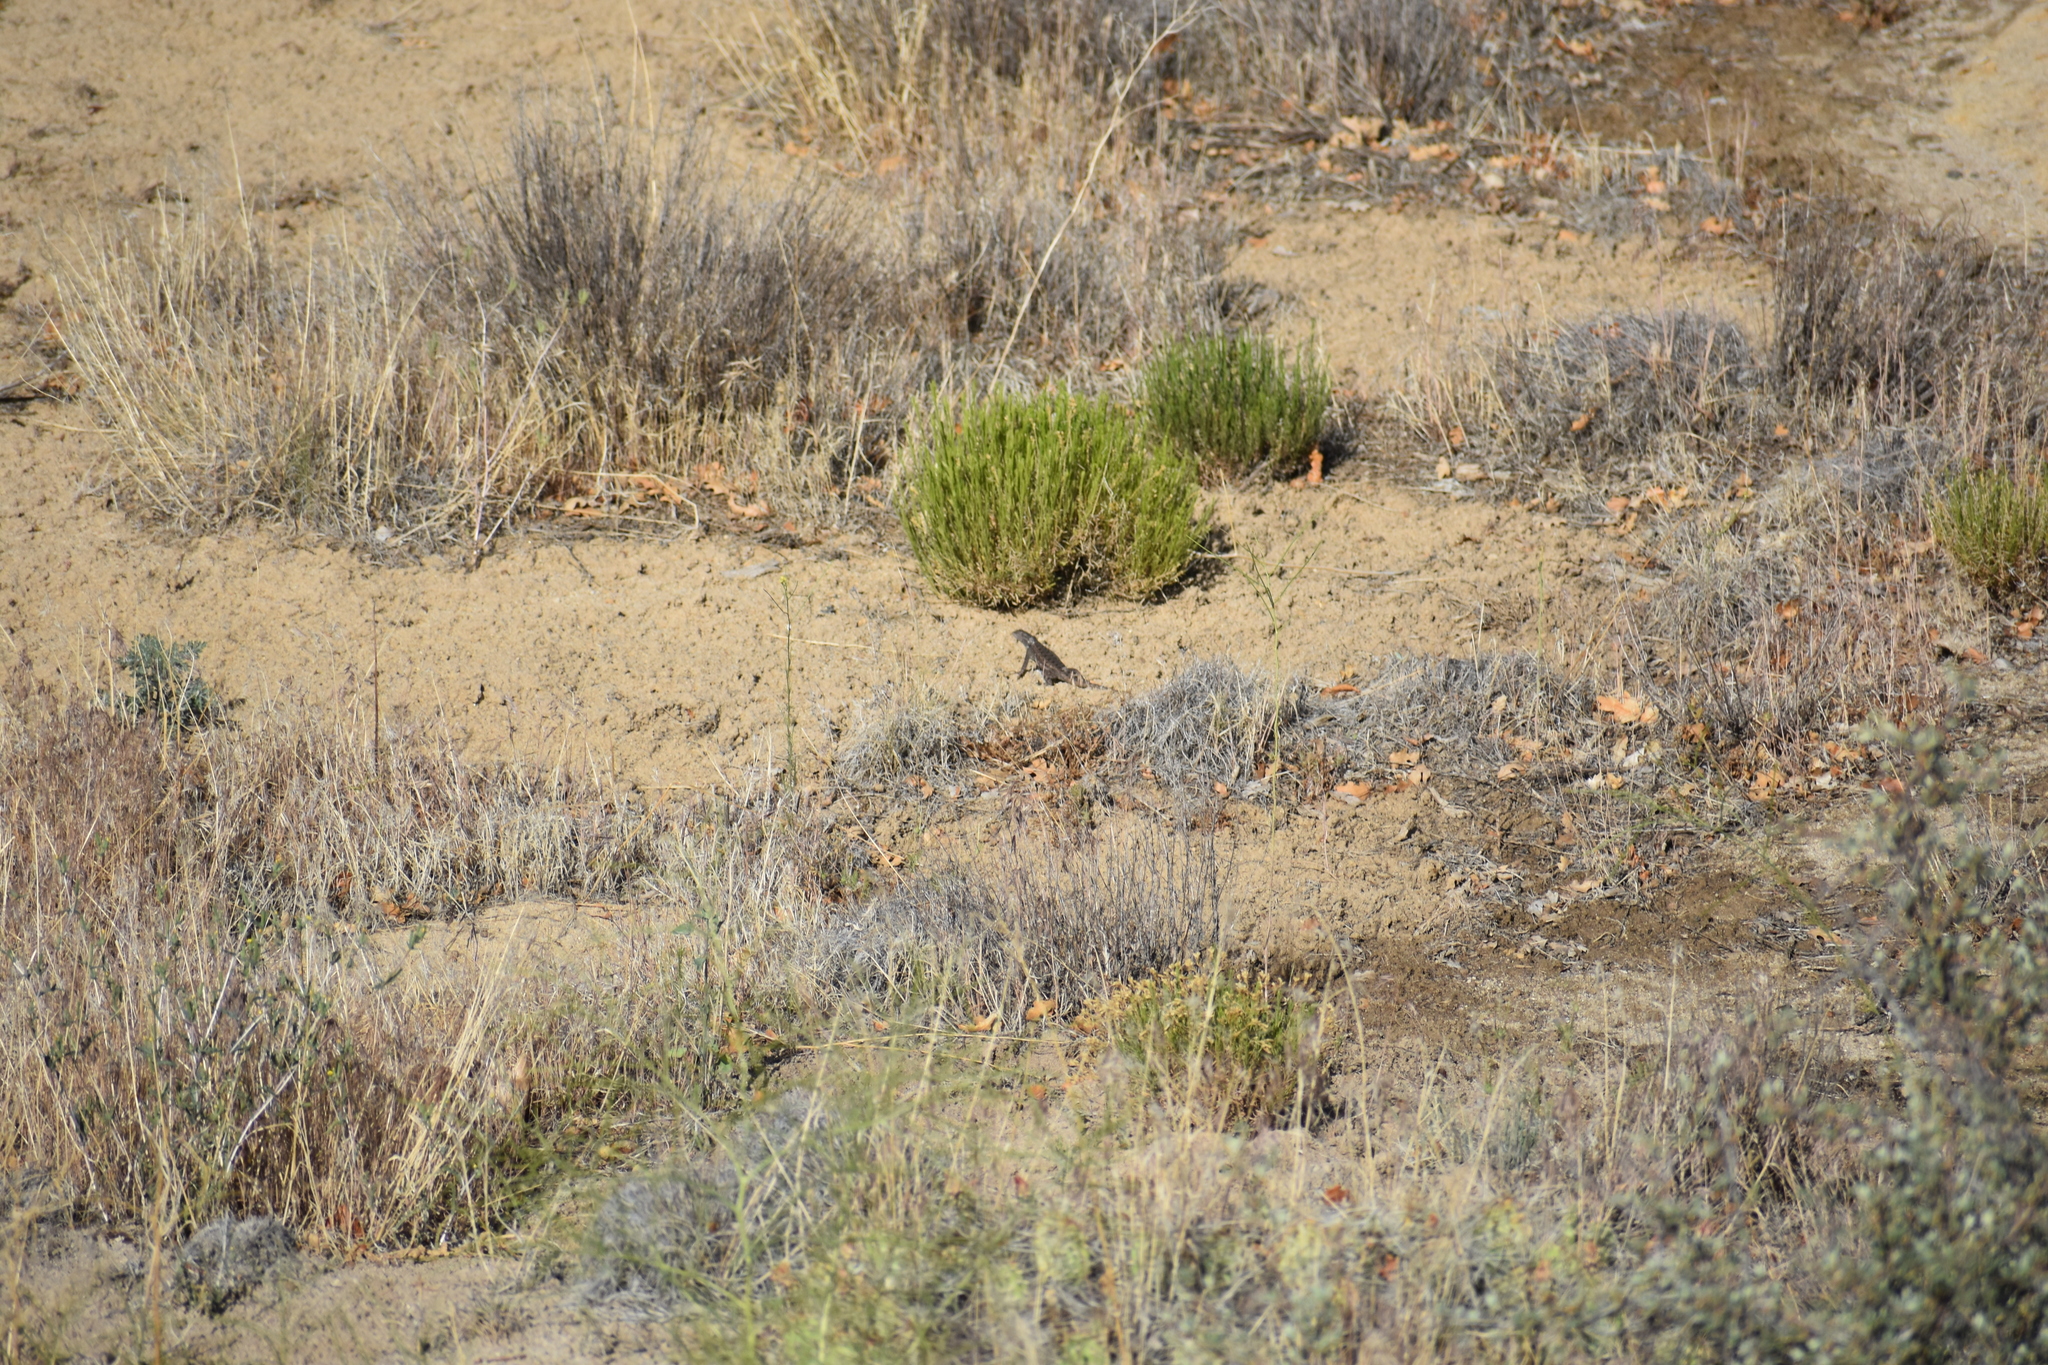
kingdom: Animalia
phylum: Chordata
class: Squamata
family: Phrynosomatidae
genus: Sceloporus
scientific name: Sceloporus tristichus
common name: Plateau fence lizard
